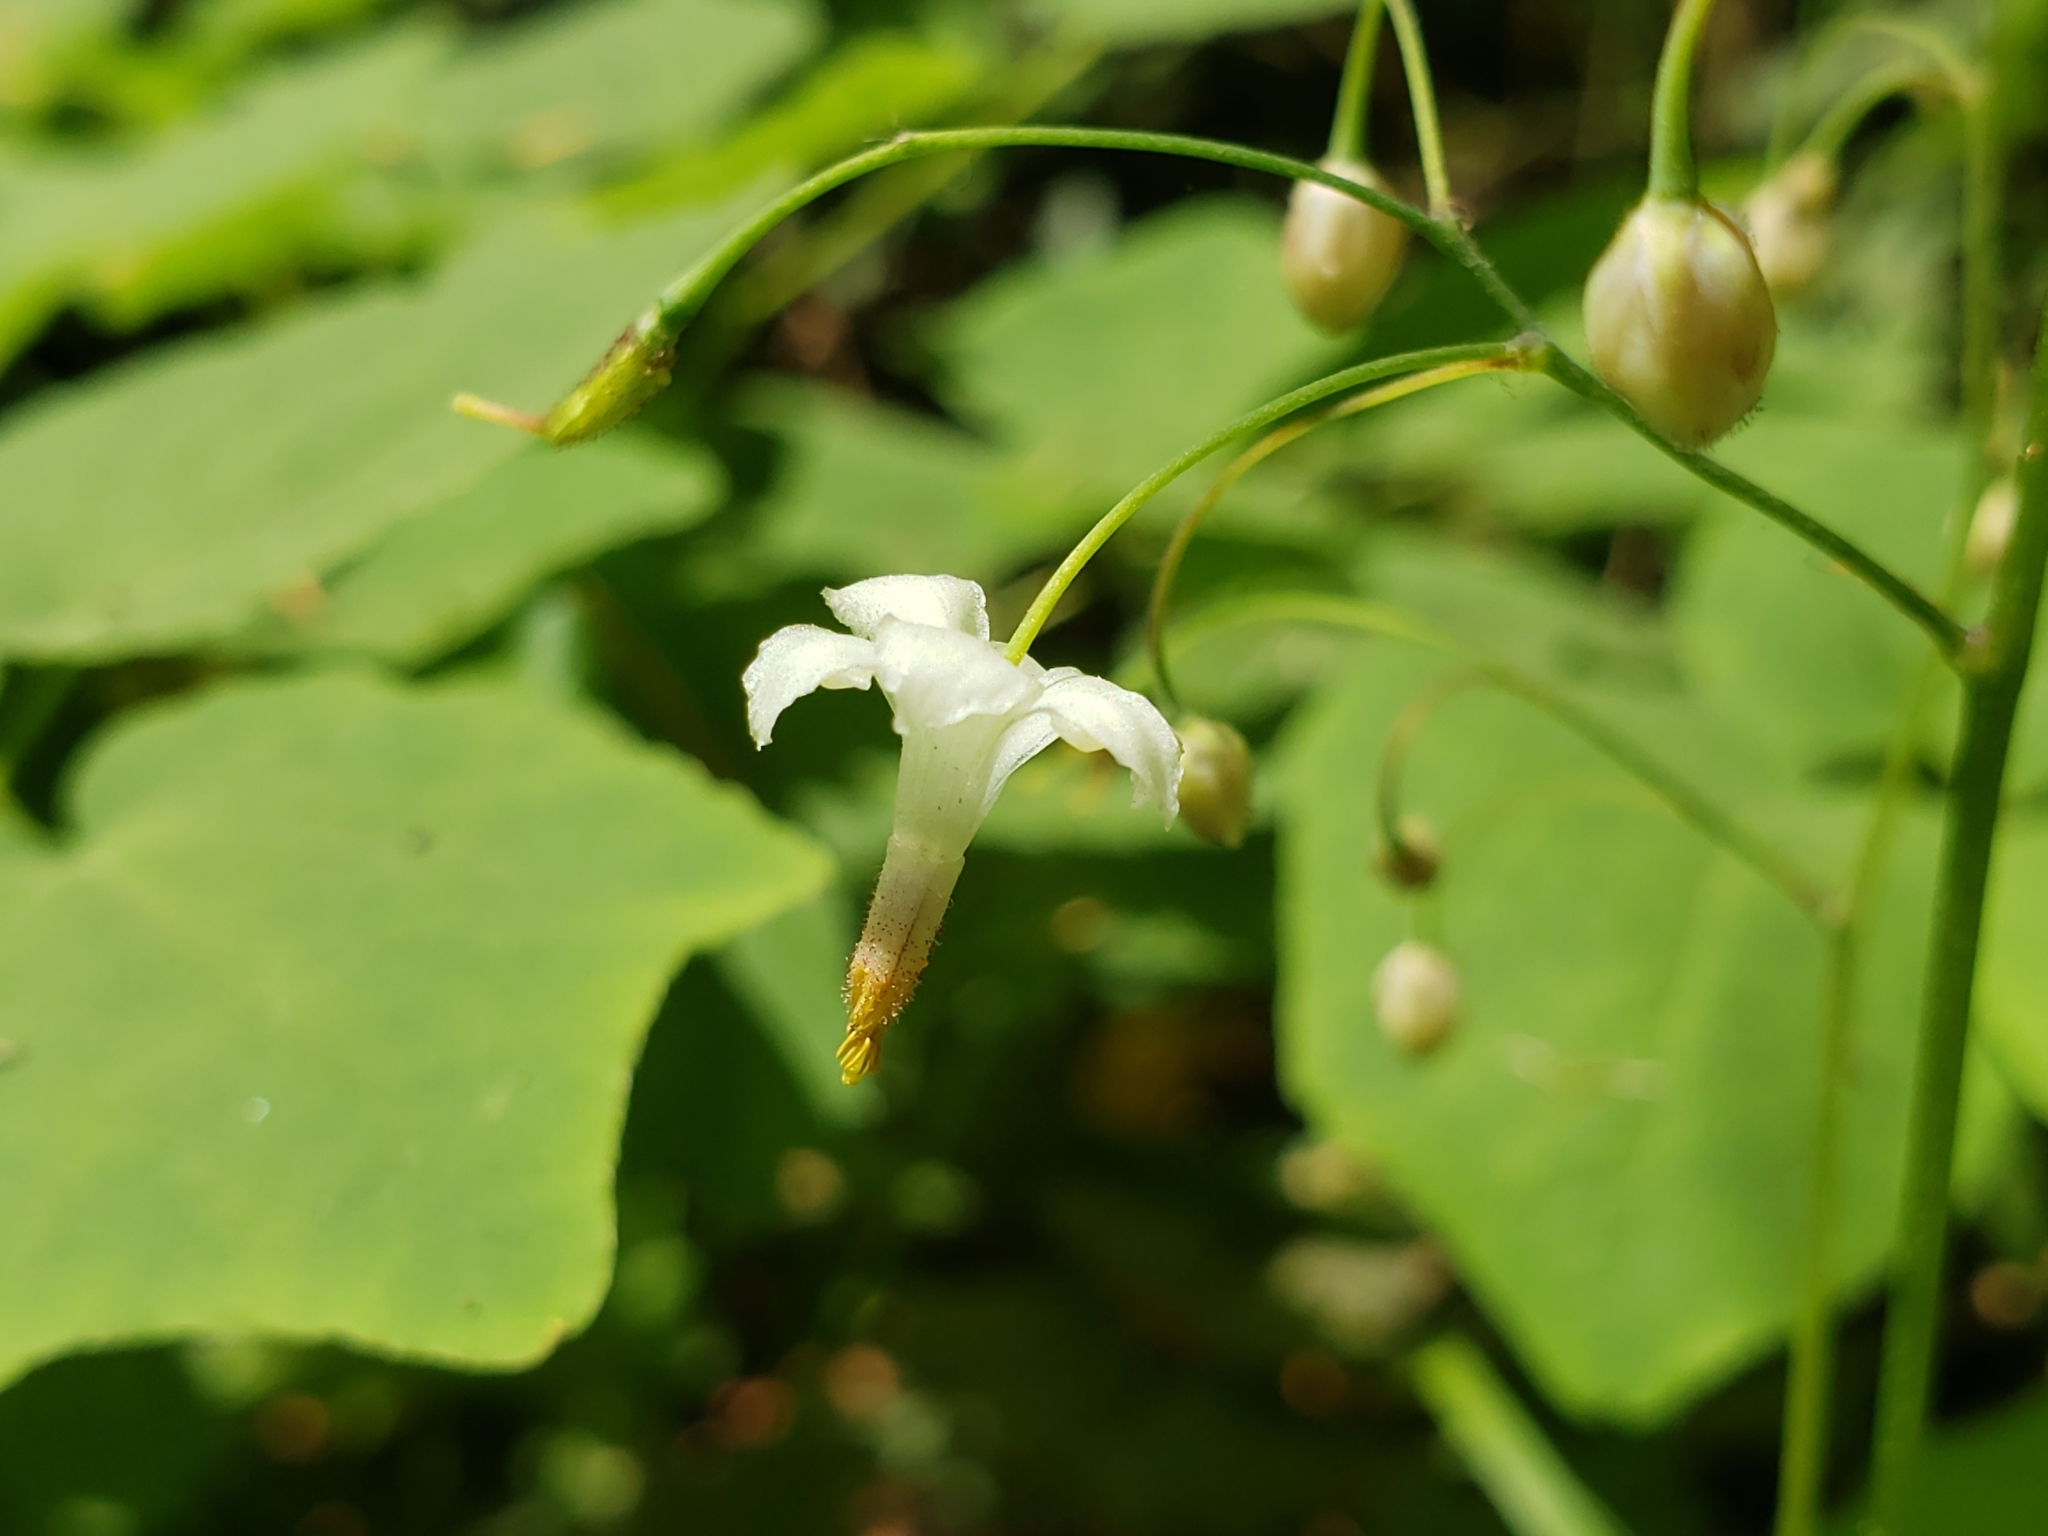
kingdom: Plantae
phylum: Tracheophyta
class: Magnoliopsida
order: Ranunculales
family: Berberidaceae
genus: Vancouveria
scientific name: Vancouveria hexandra
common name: Northern inside-out-flower
